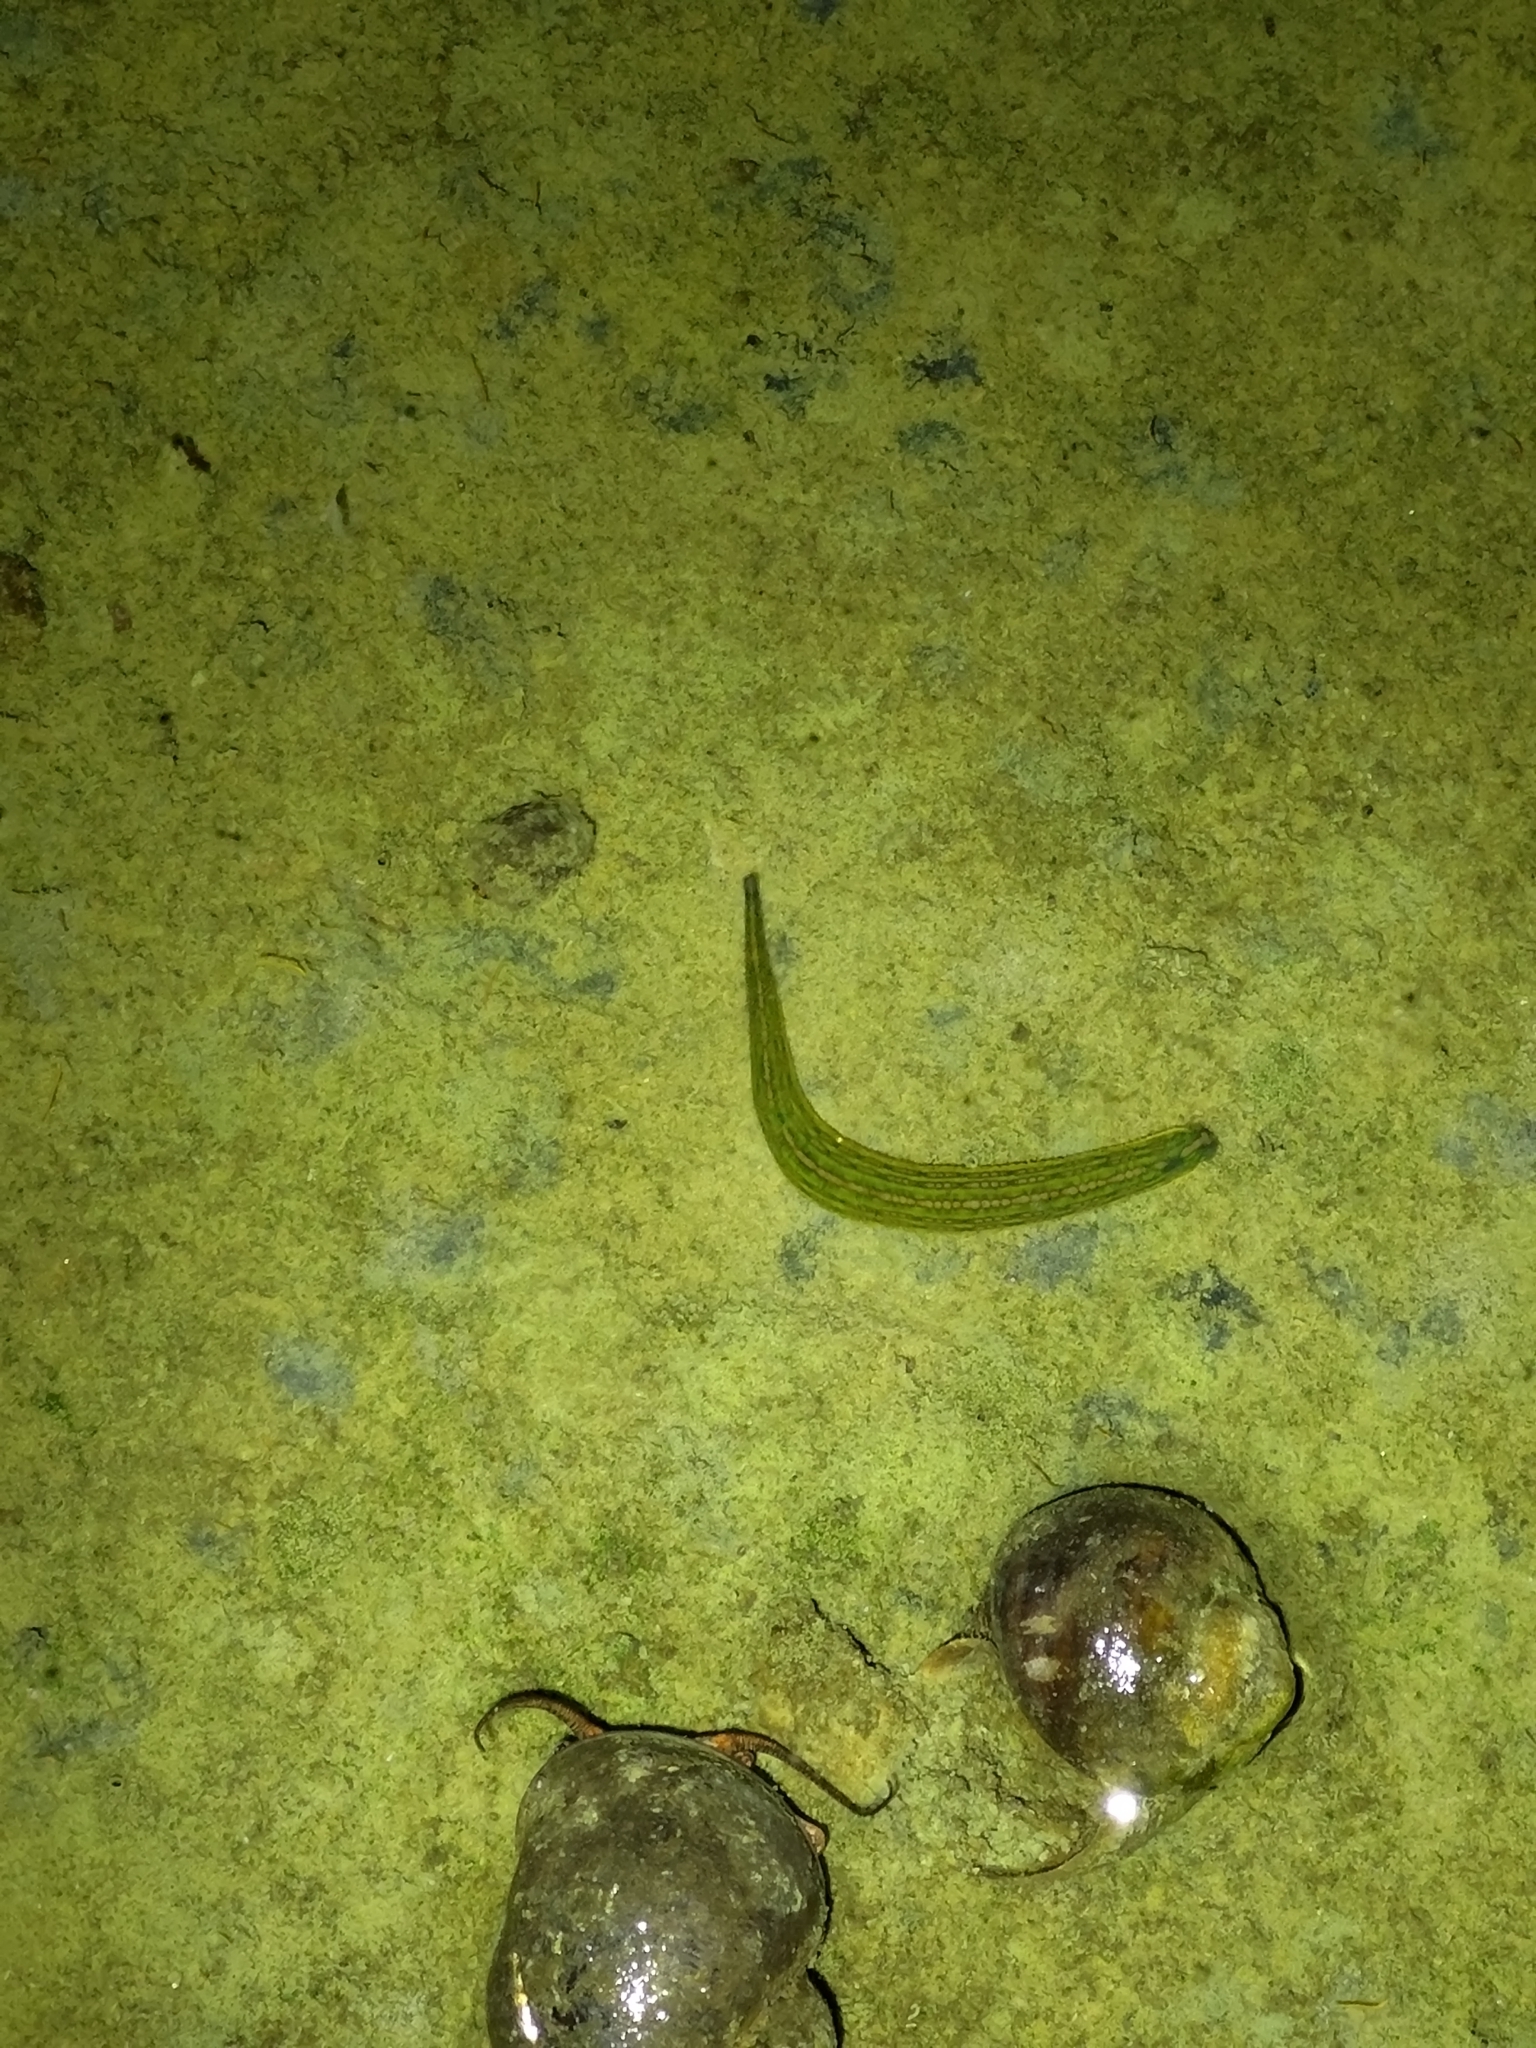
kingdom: Animalia
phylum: Annelida
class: Clitellata
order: Arhynchobdellida
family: Hirudinidae
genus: Whitmania
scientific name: Whitmania laevis
